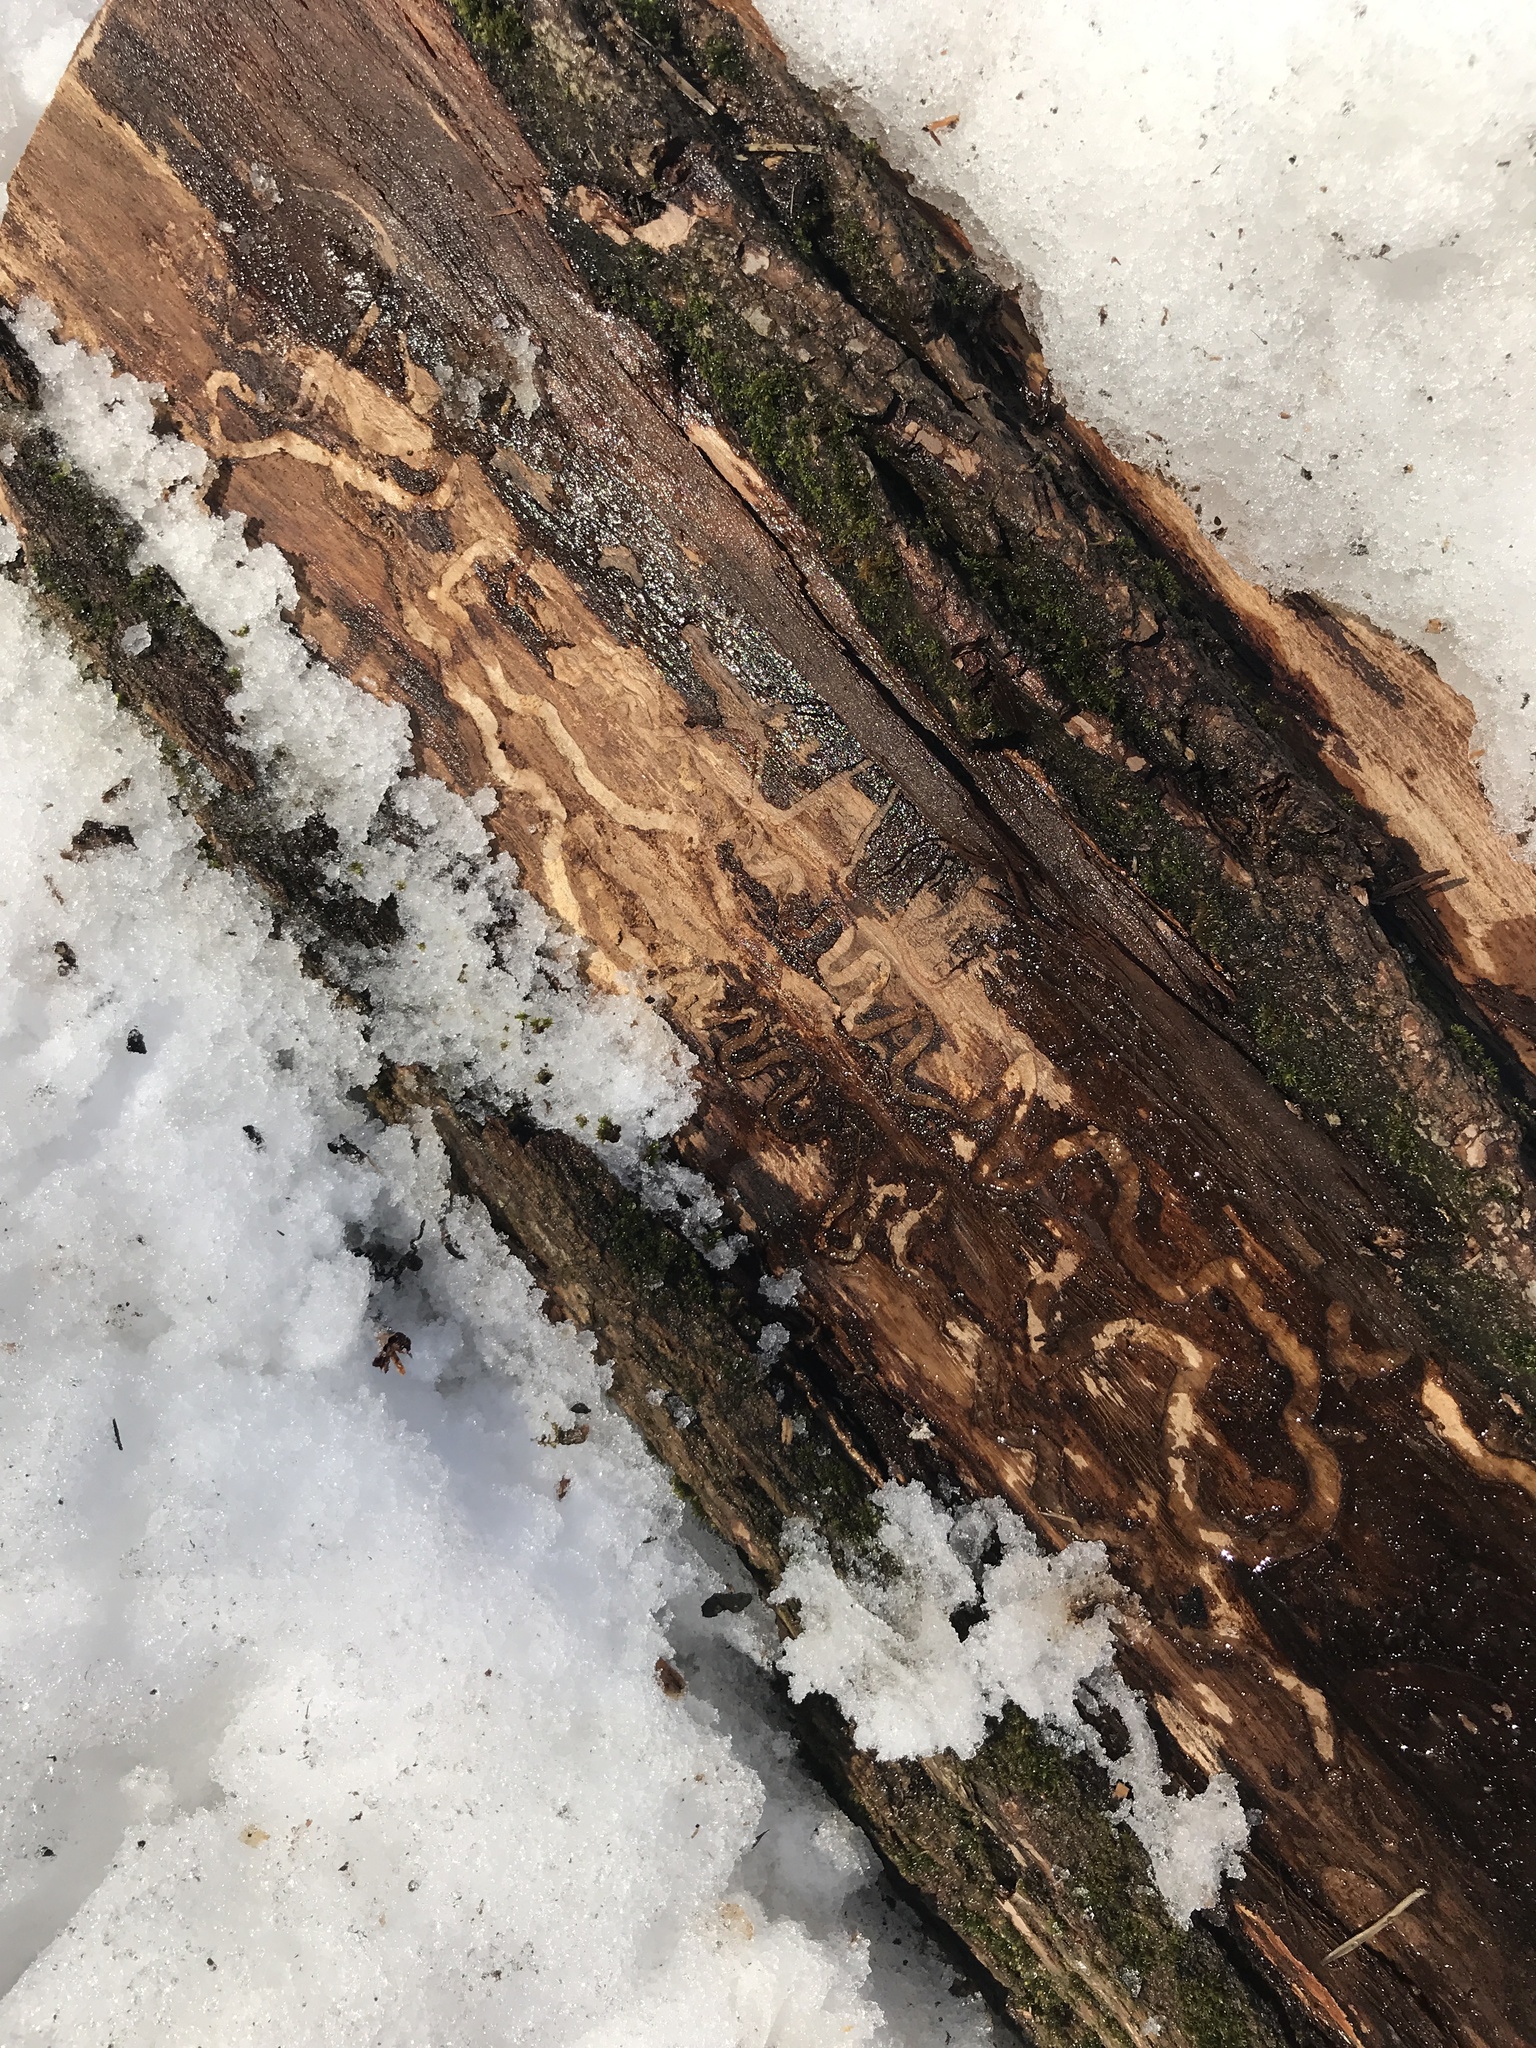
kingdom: Animalia
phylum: Arthropoda
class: Insecta
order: Coleoptera
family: Buprestidae
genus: Agrilus
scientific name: Agrilus planipennis
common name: Emerald ash borer
